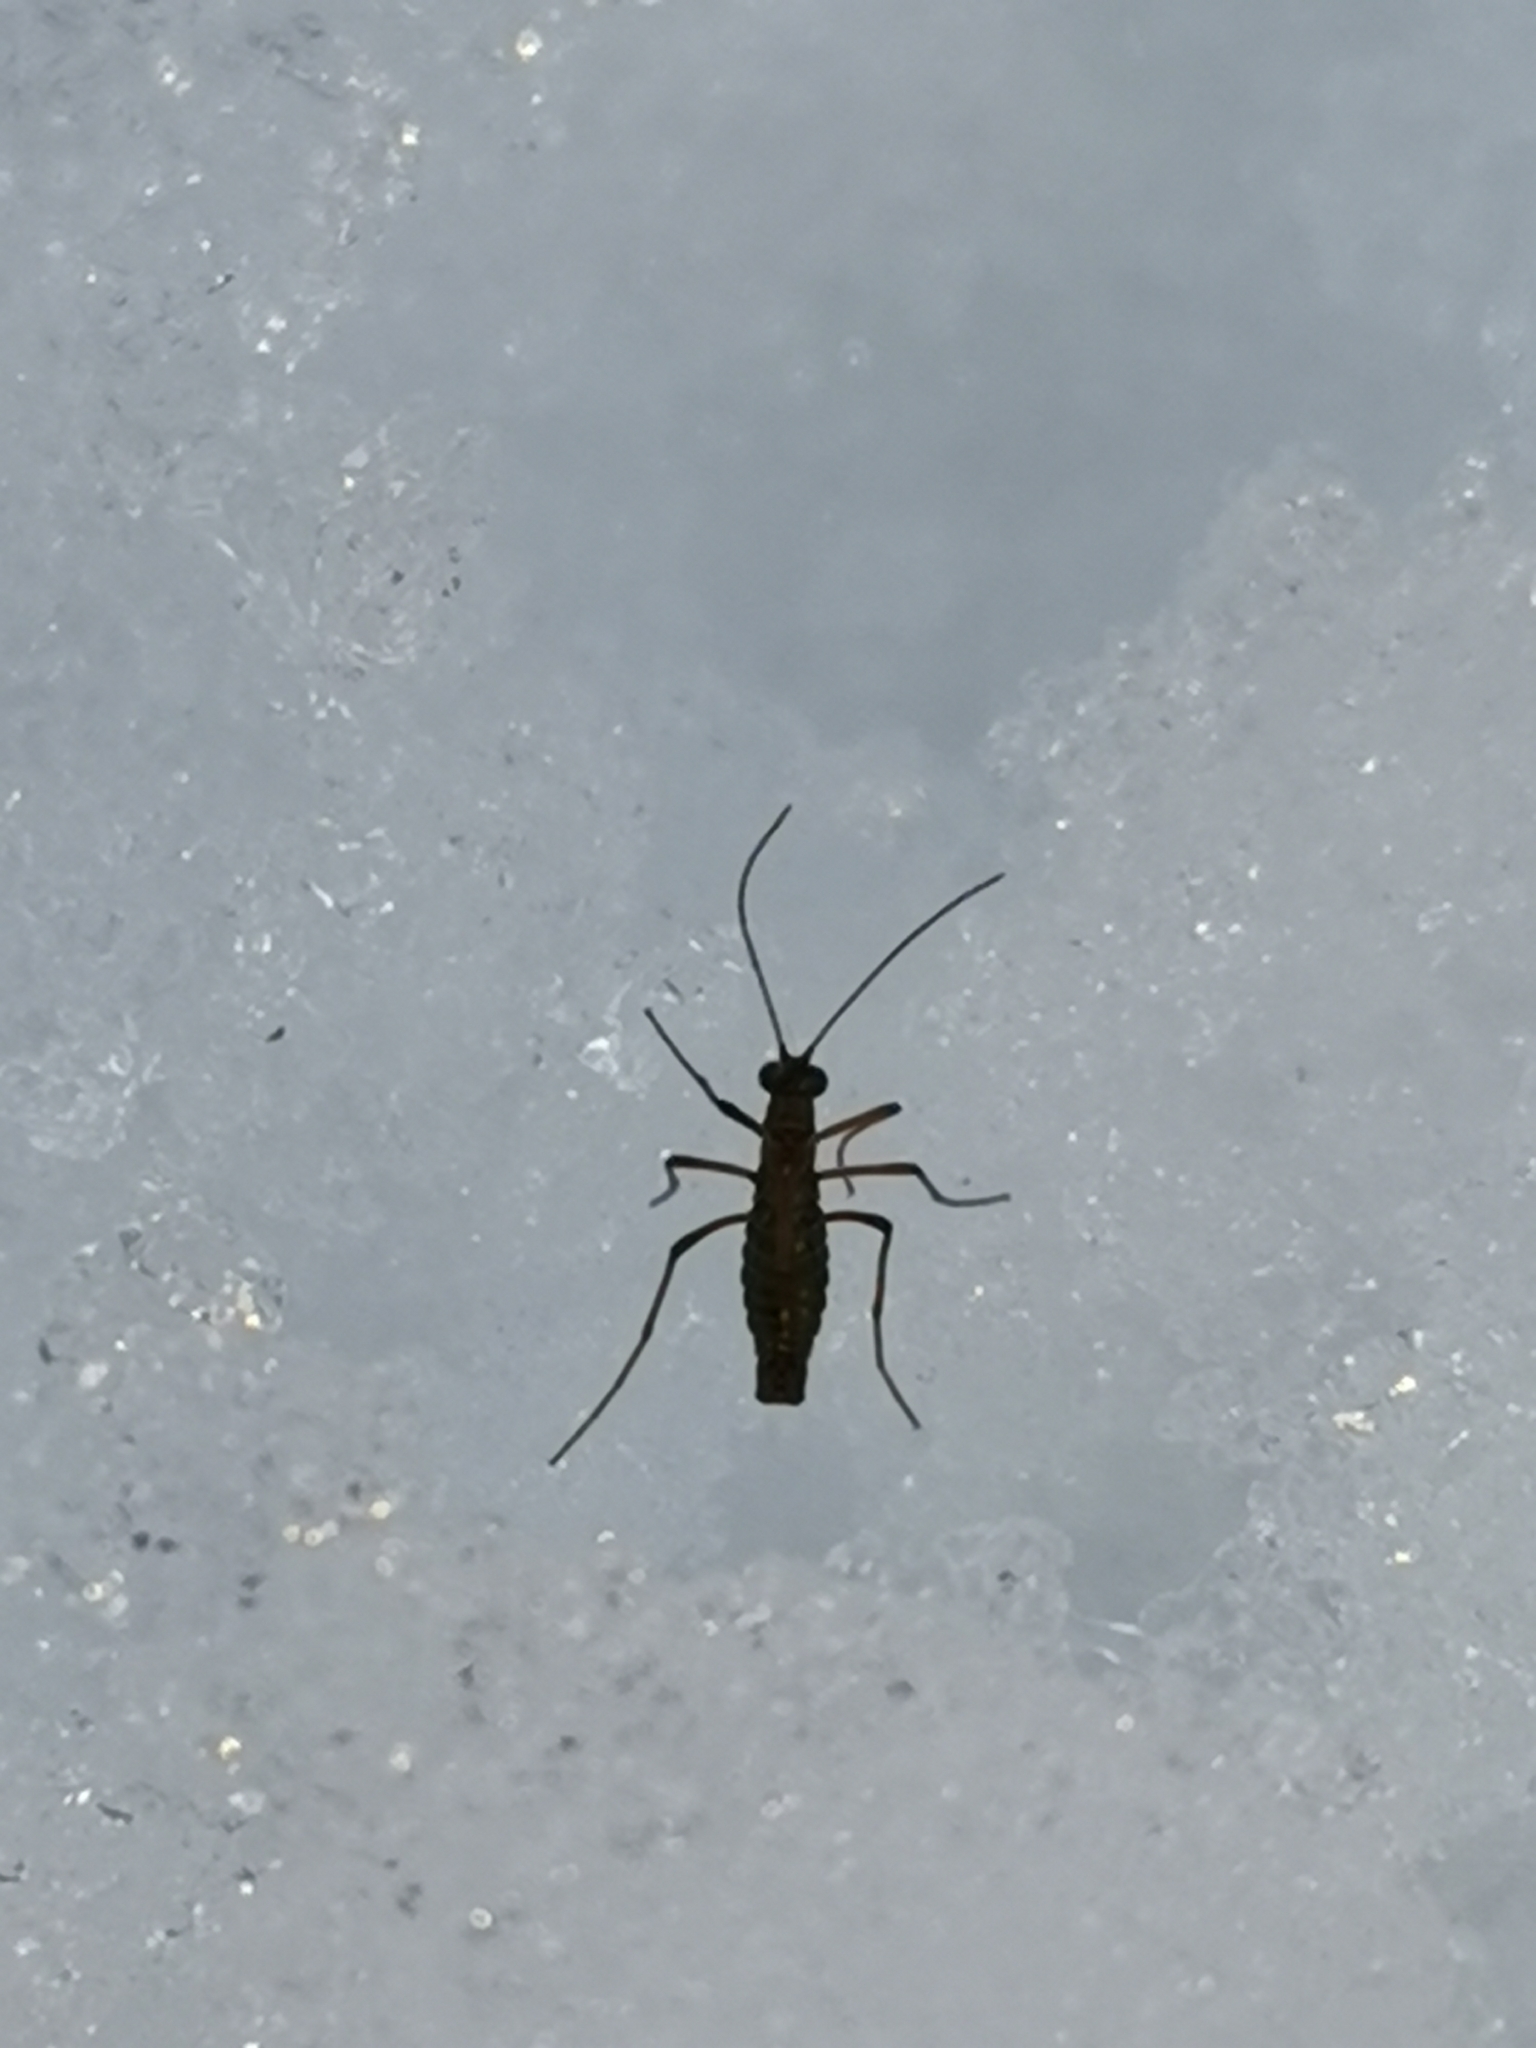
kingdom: Animalia
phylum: Arthropoda
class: Insecta
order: Mecoptera
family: Boreidae
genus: Boreus
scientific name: Boreus westwoodi
